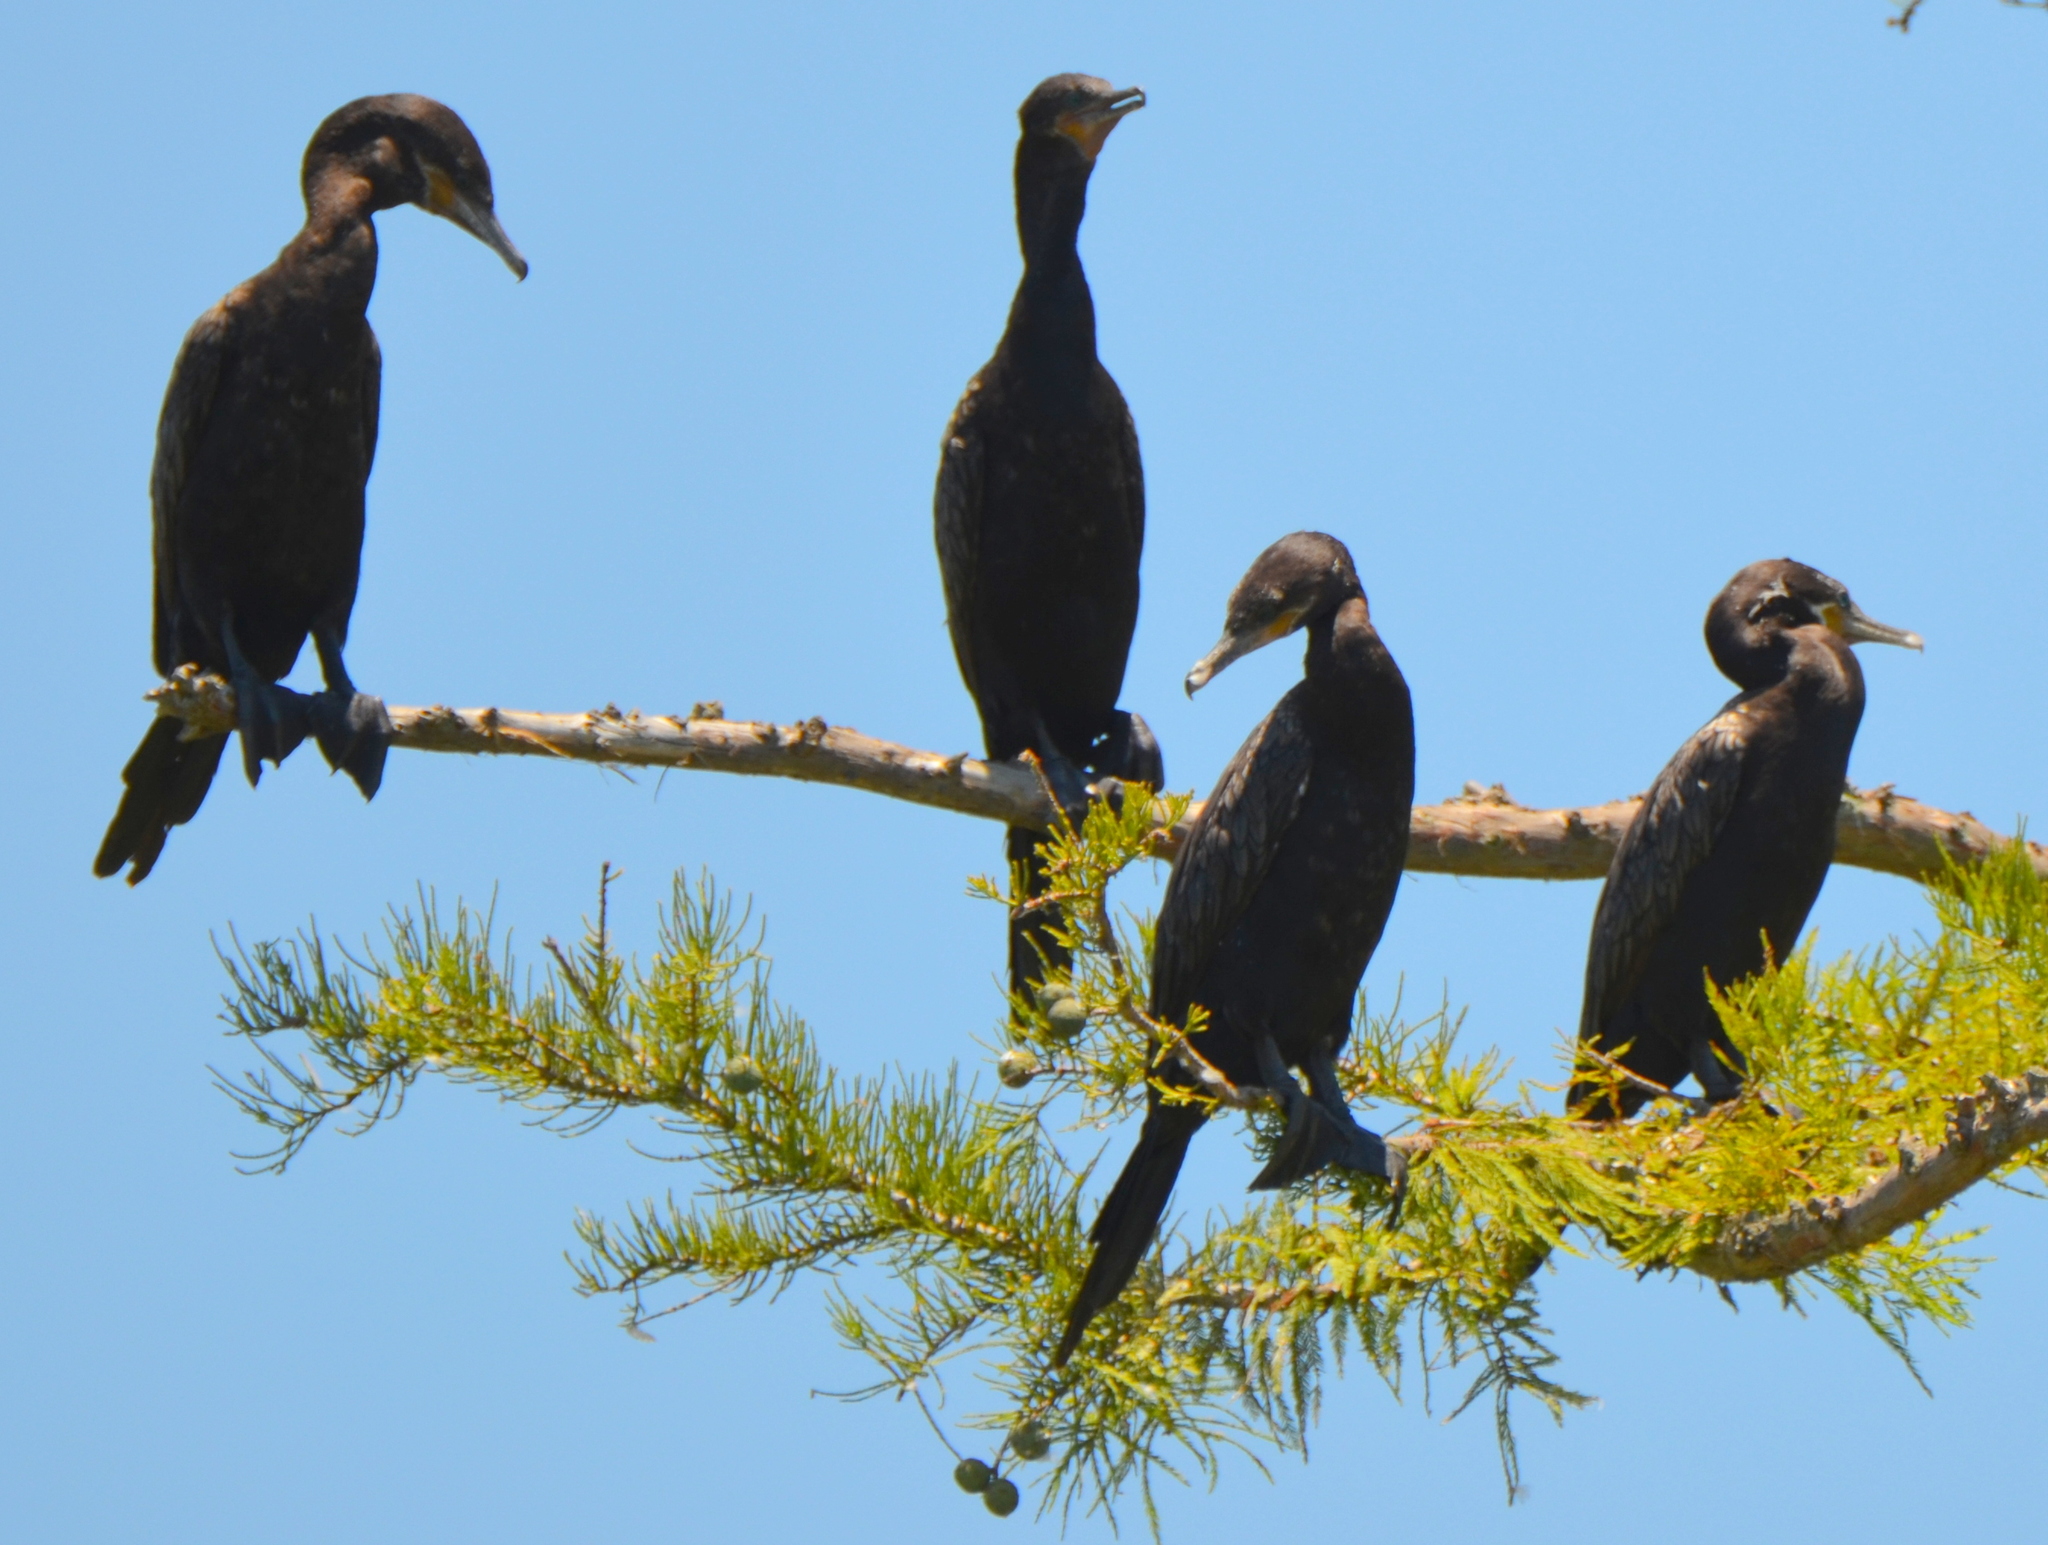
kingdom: Animalia
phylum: Chordata
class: Aves
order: Suliformes
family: Phalacrocoracidae
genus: Phalacrocorax
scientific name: Phalacrocorax brasilianus
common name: Neotropic cormorant
